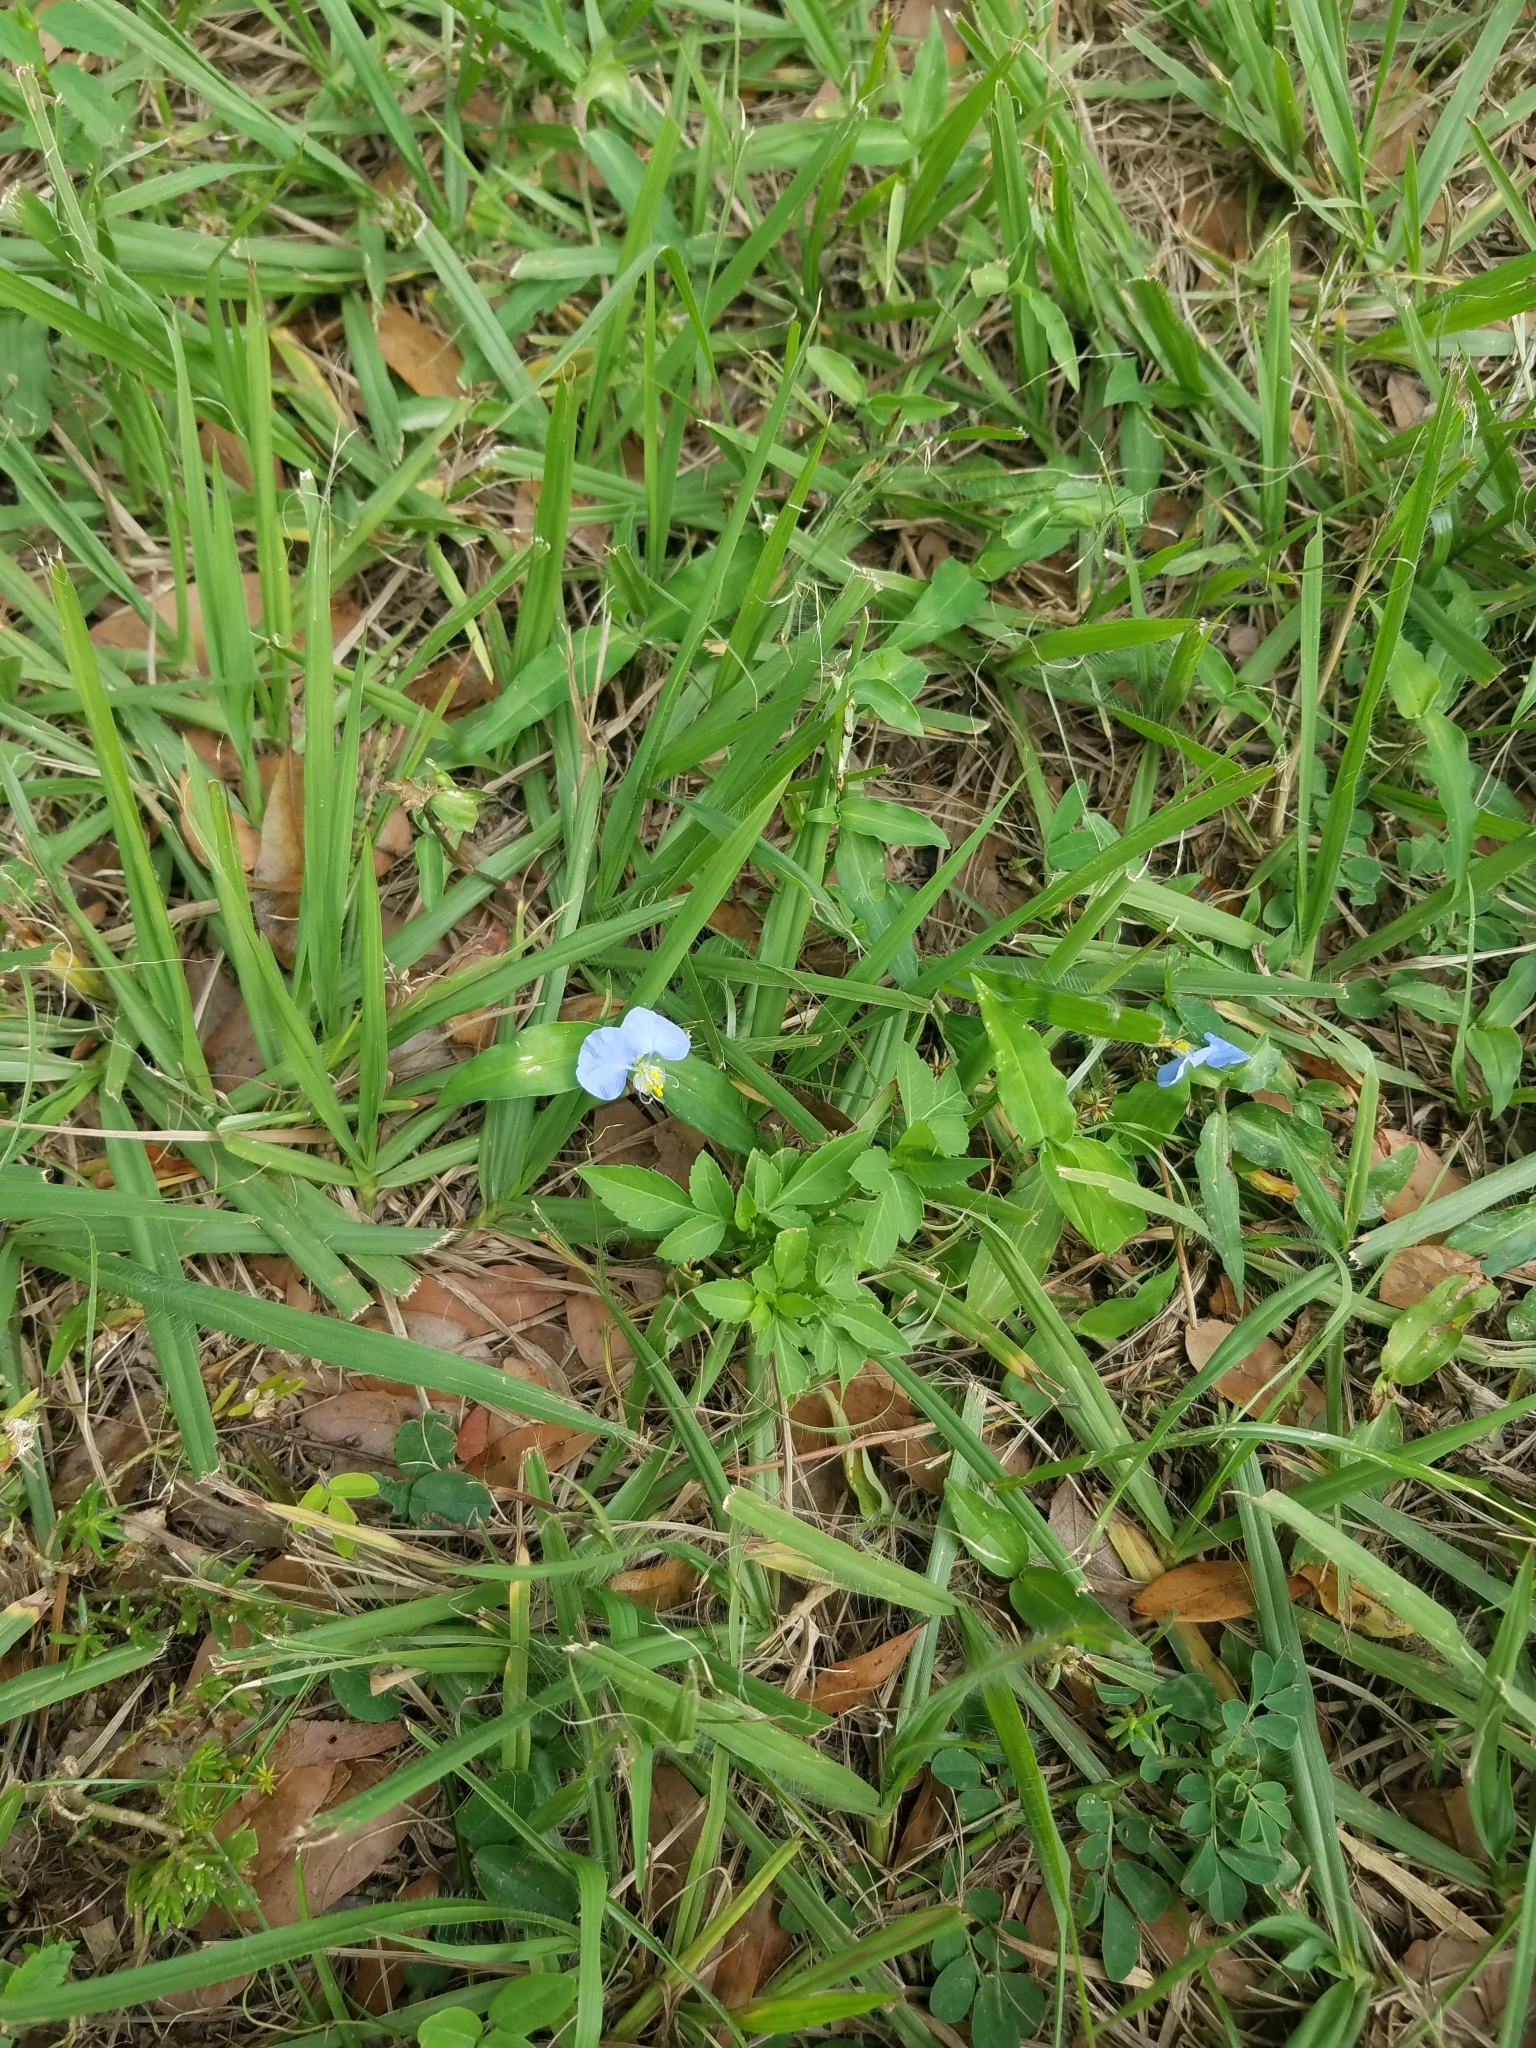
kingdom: Plantae
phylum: Tracheophyta
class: Liliopsida
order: Commelinales
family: Commelinaceae
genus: Commelina
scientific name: Commelina erecta
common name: Blousel blommetjie
